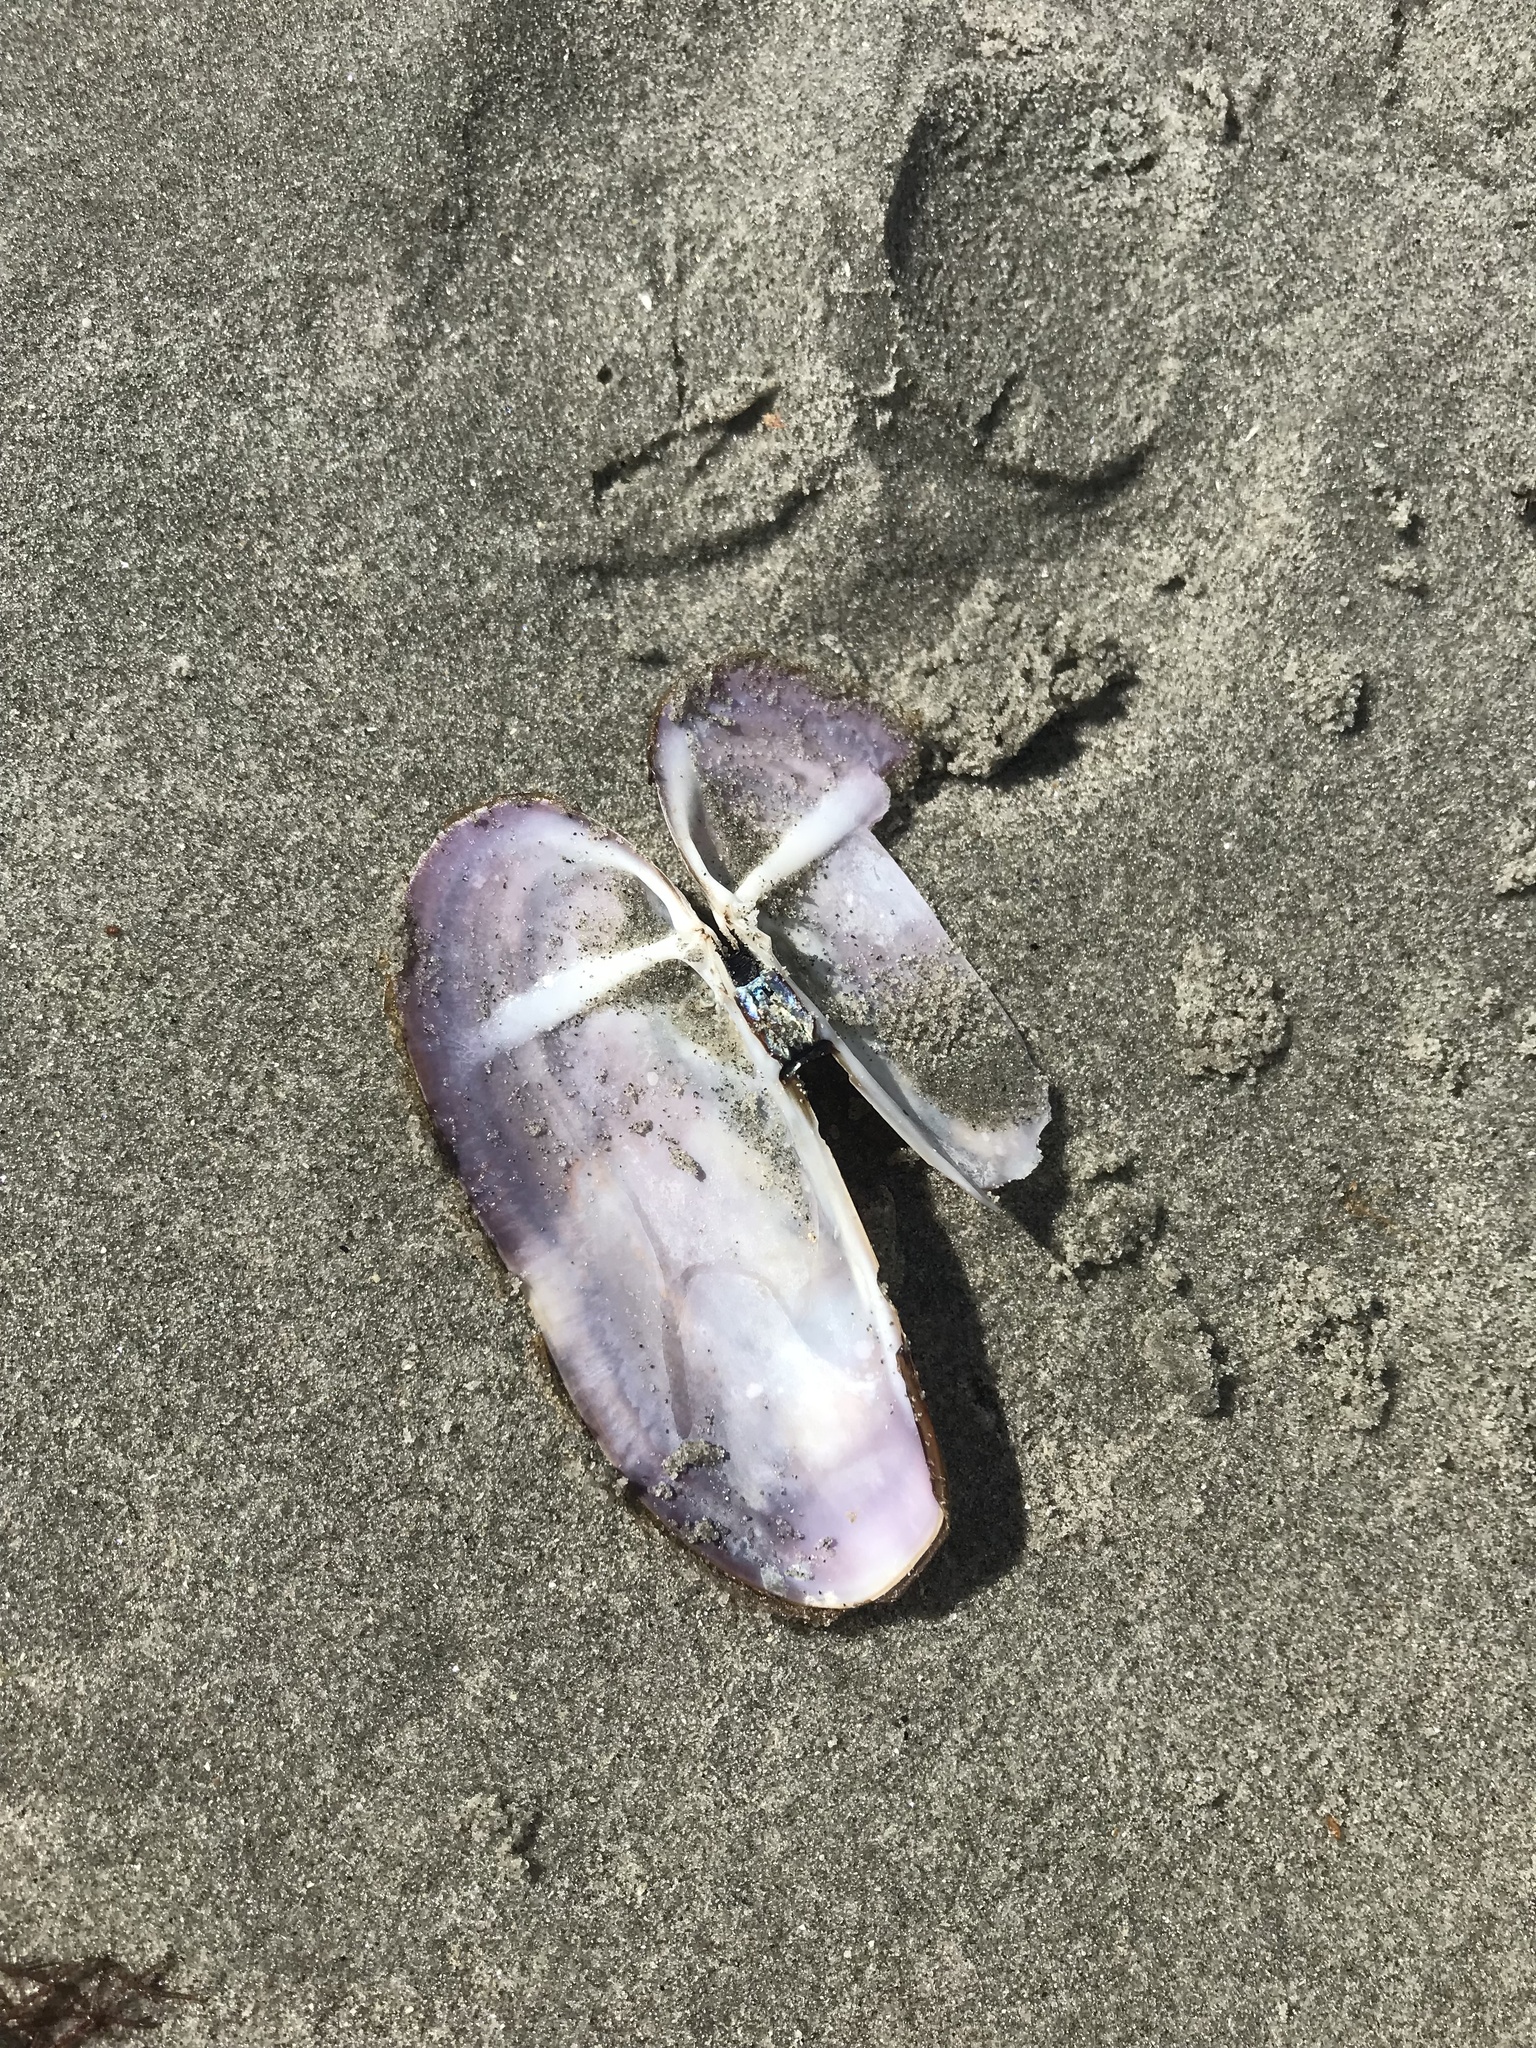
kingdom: Animalia
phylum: Mollusca
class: Bivalvia
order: Adapedonta
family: Pharidae
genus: Siliqua
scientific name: Siliqua costata
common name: Atlantic razor
